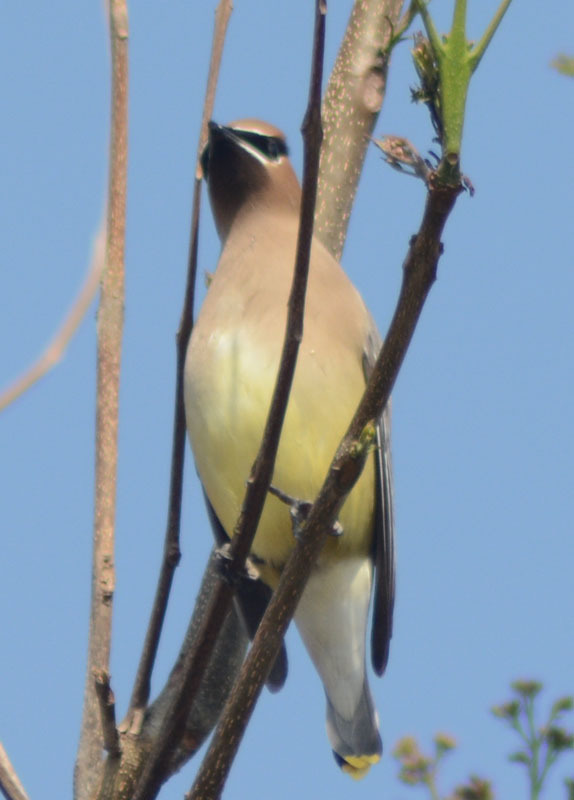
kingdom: Animalia
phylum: Chordata
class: Aves
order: Passeriformes
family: Bombycillidae
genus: Bombycilla
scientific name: Bombycilla cedrorum
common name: Cedar waxwing
